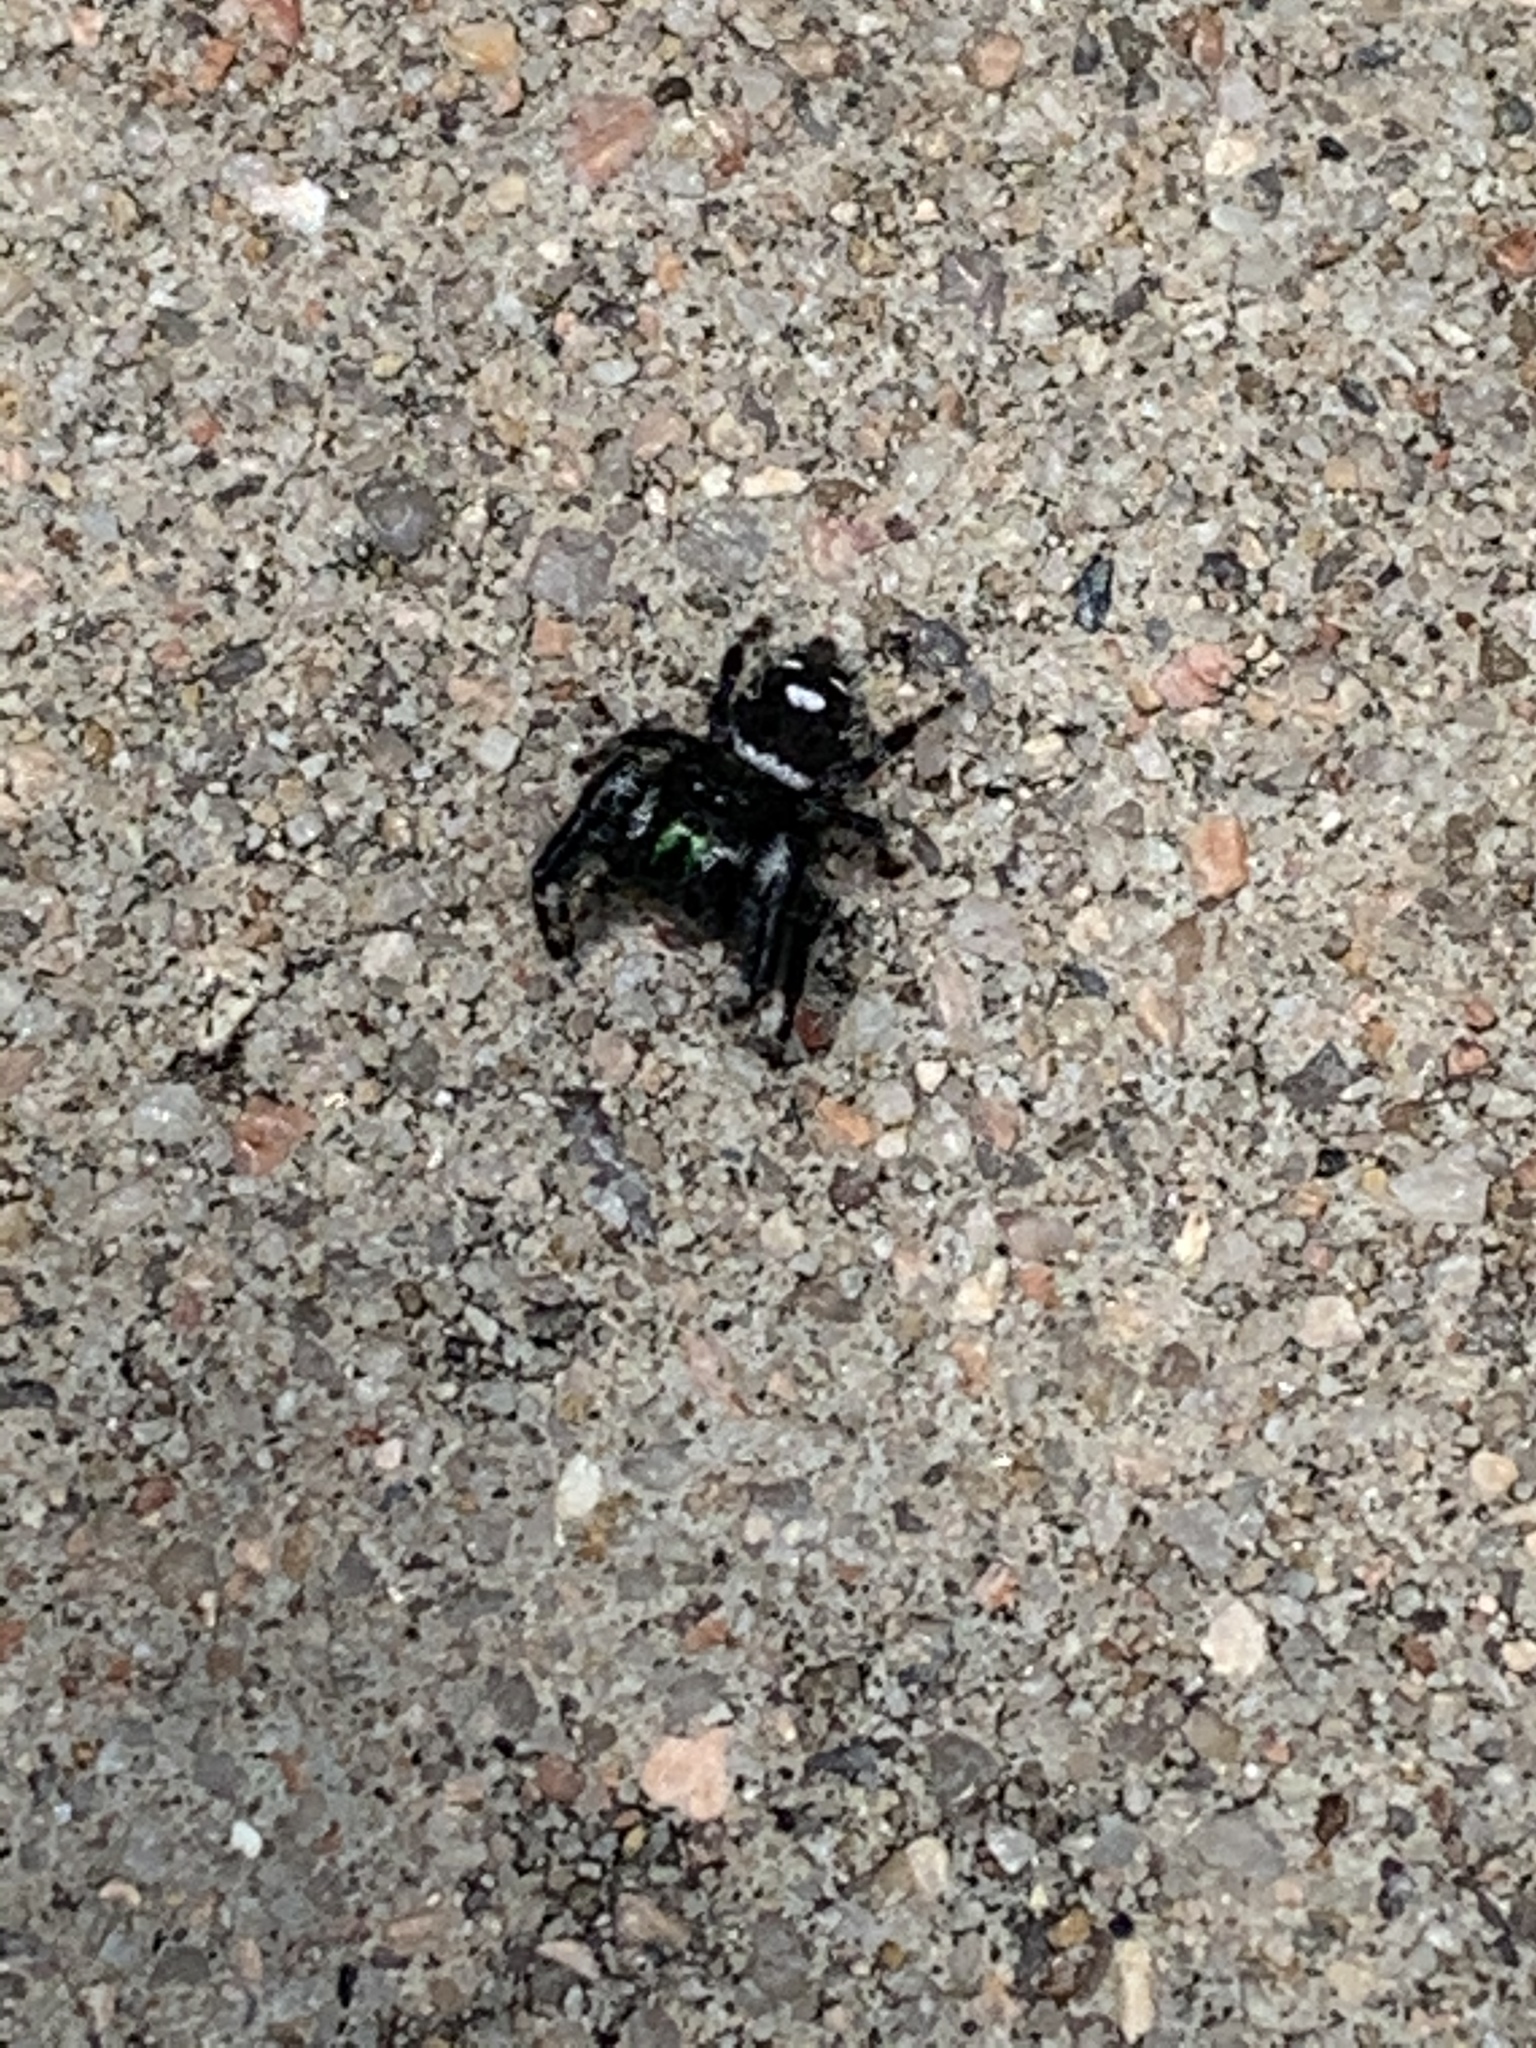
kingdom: Animalia
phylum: Arthropoda
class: Arachnida
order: Araneae
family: Salticidae
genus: Phidippus
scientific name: Phidippus audax
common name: Bold jumper
